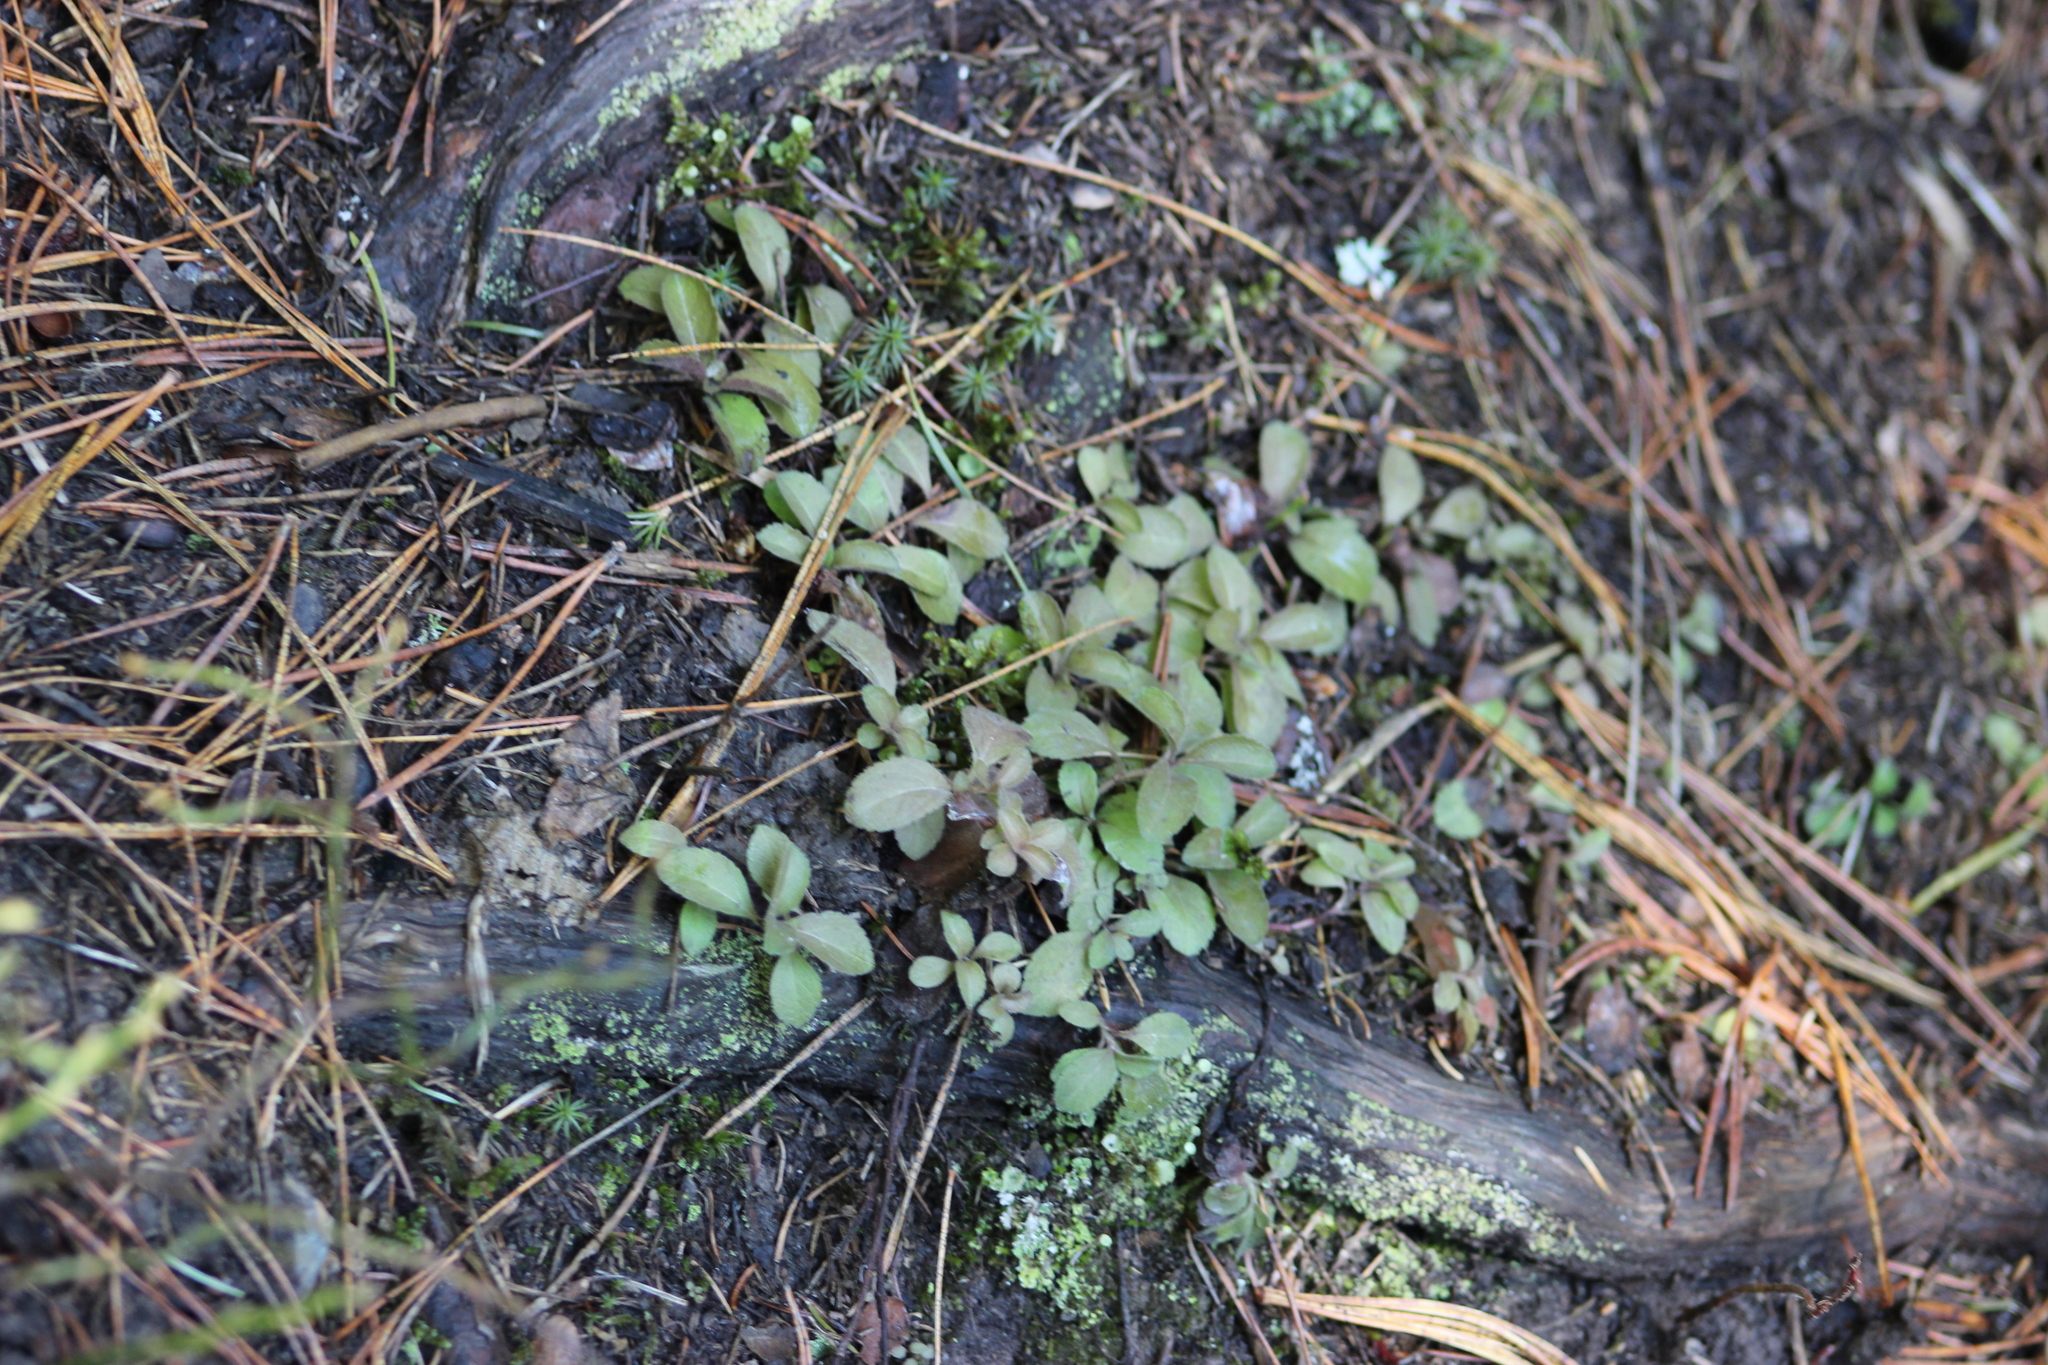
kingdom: Plantae
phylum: Tracheophyta
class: Magnoliopsida
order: Lamiales
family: Plantaginaceae
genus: Veronica
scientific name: Veronica officinalis
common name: Common speedwell
